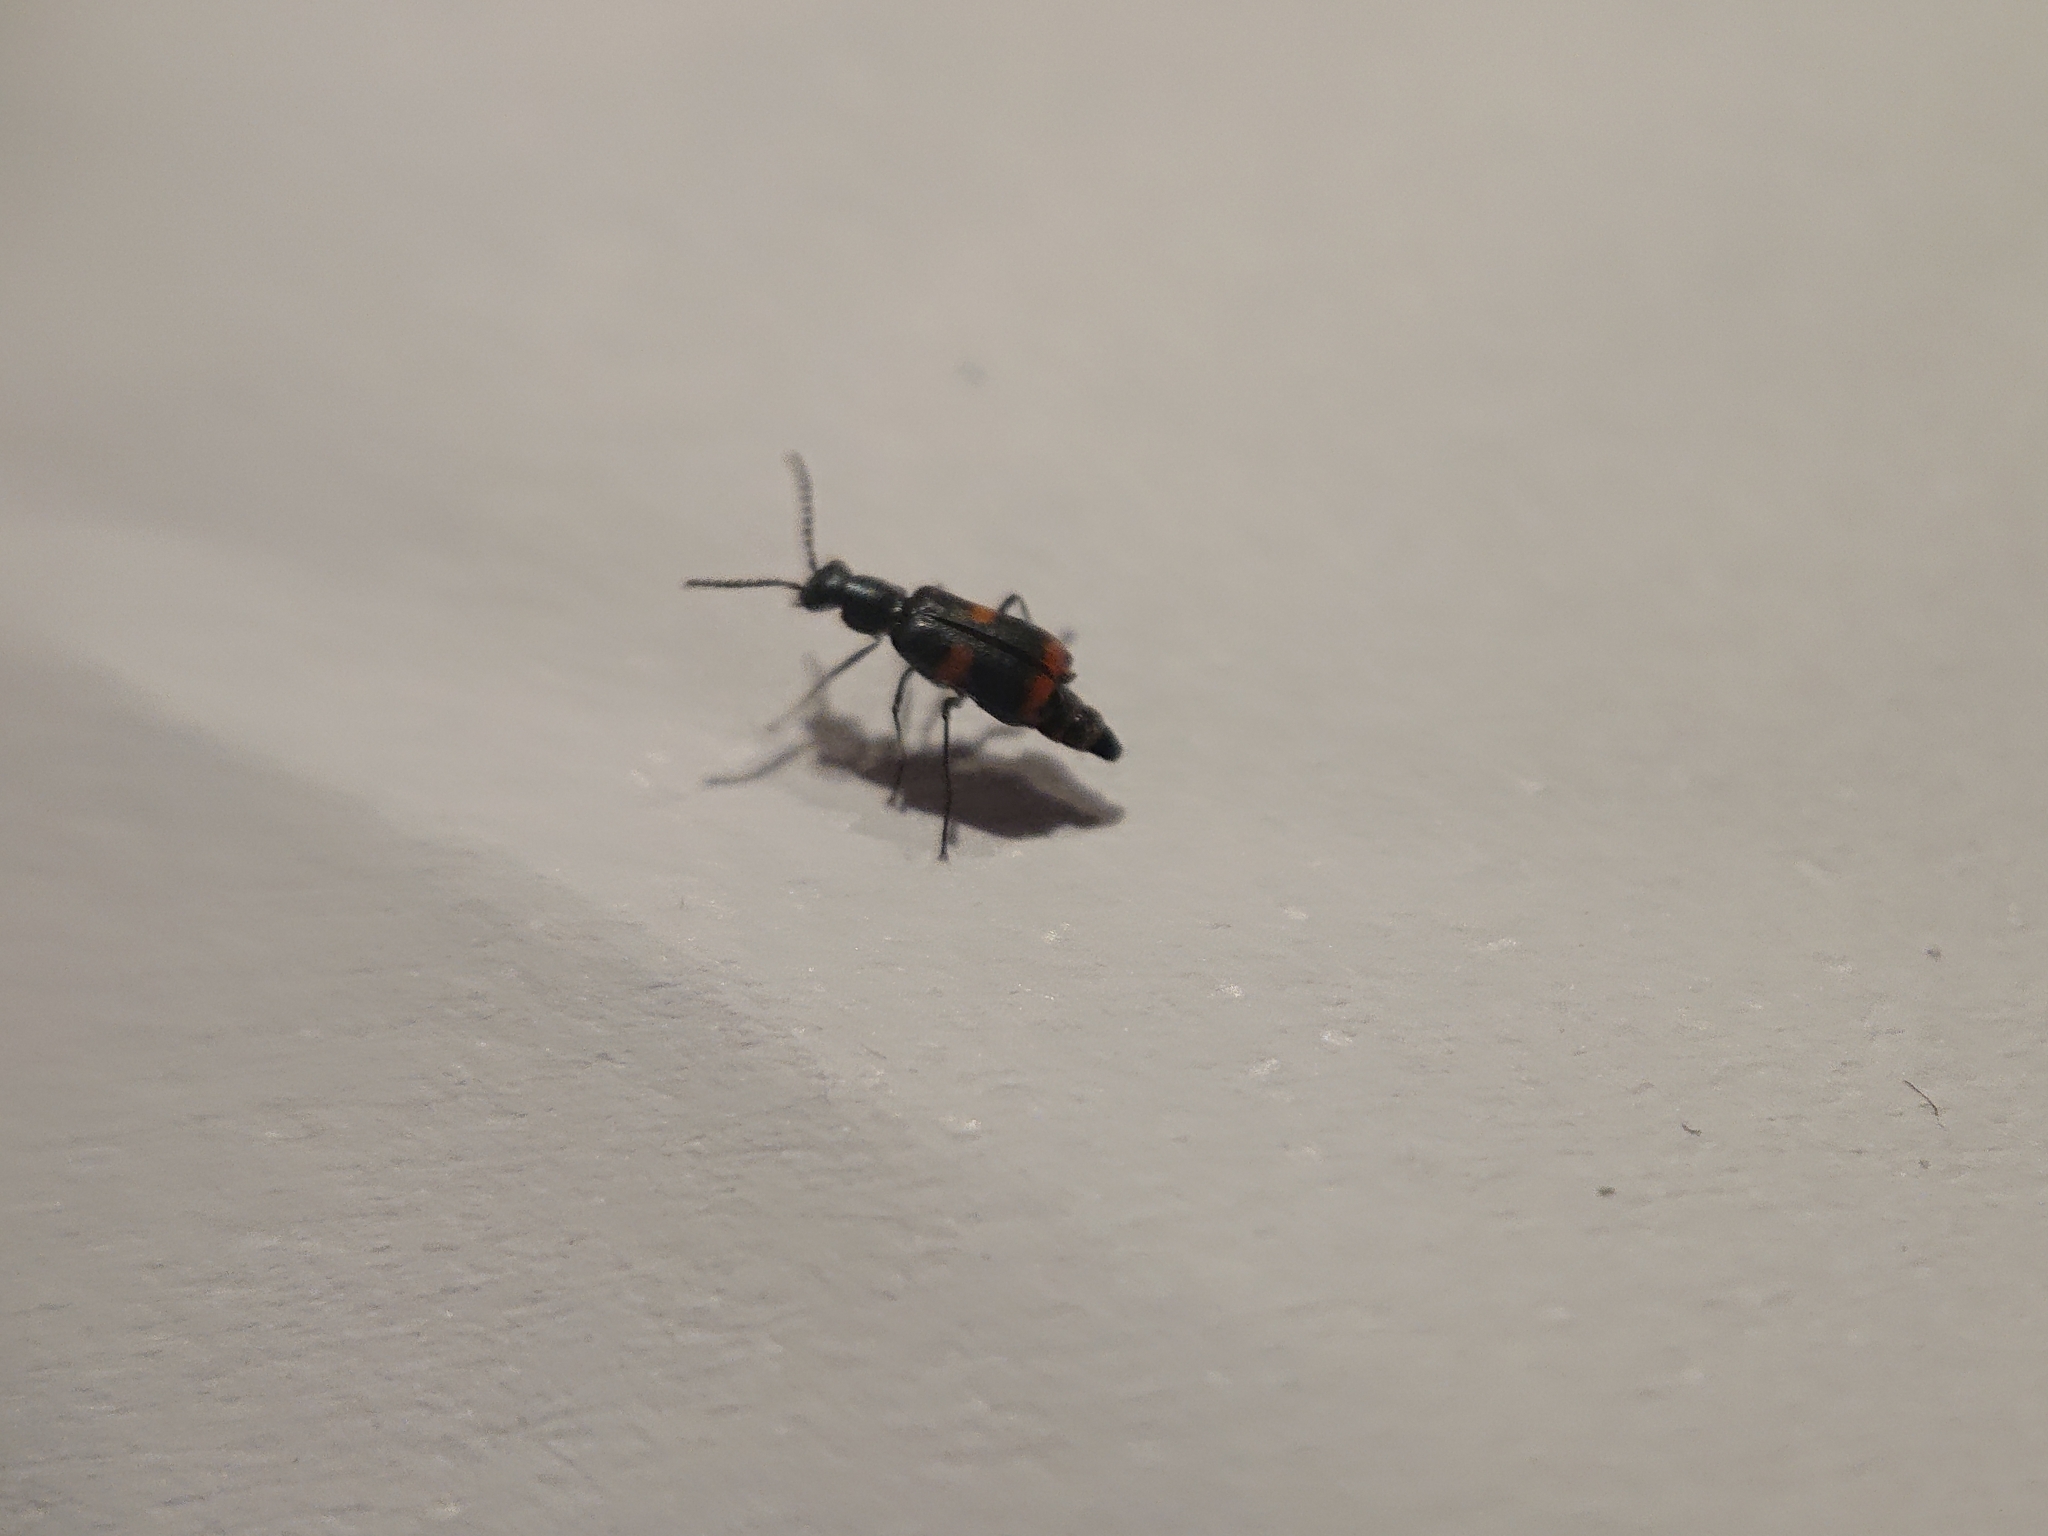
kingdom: Animalia
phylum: Arthropoda
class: Insecta
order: Coleoptera
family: Melyridae
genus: Anthocomus
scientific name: Anthocomus fasciatus
